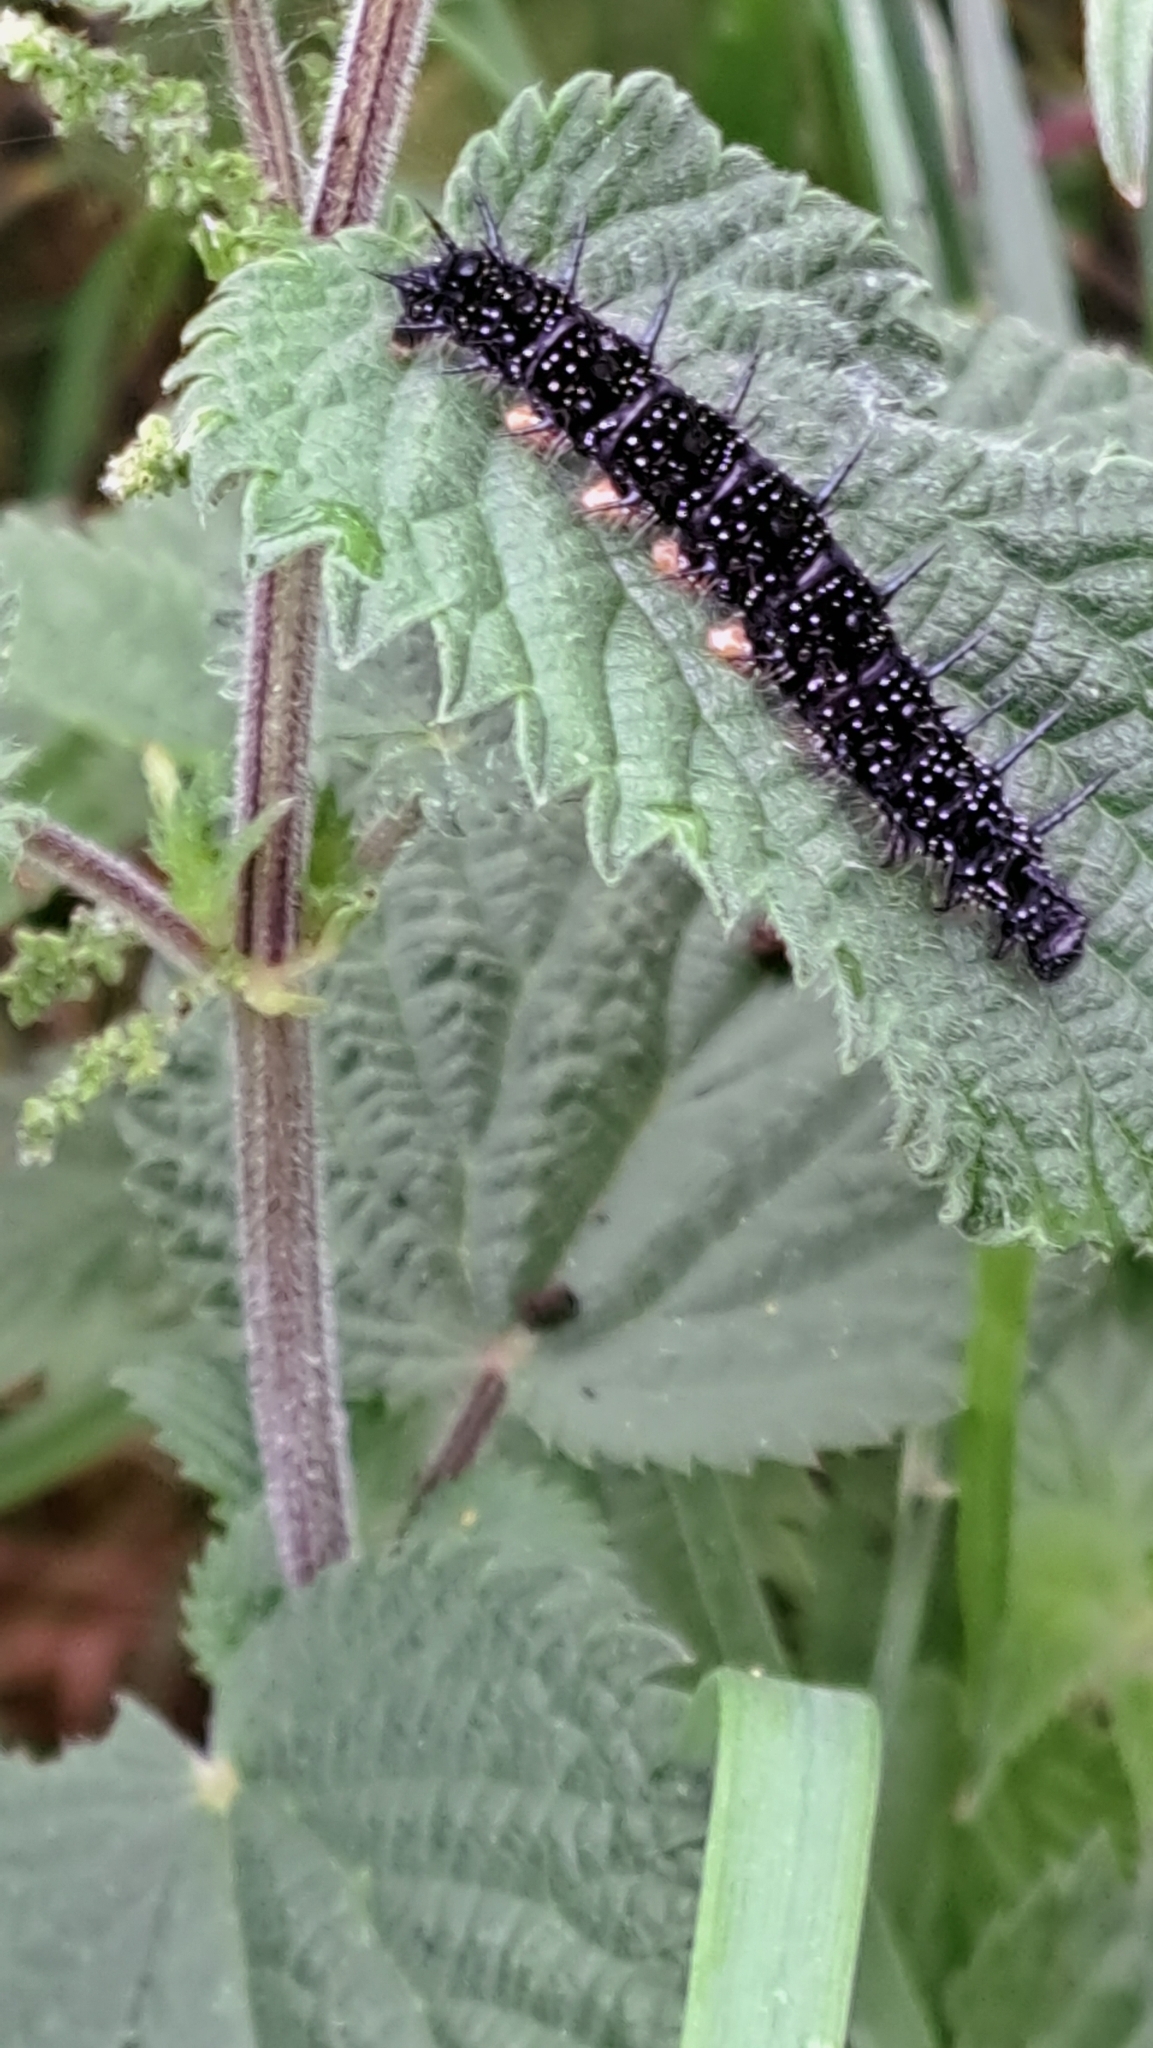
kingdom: Animalia
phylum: Arthropoda
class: Insecta
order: Lepidoptera
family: Nymphalidae
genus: Aglais
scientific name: Aglais io
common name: Peacock
